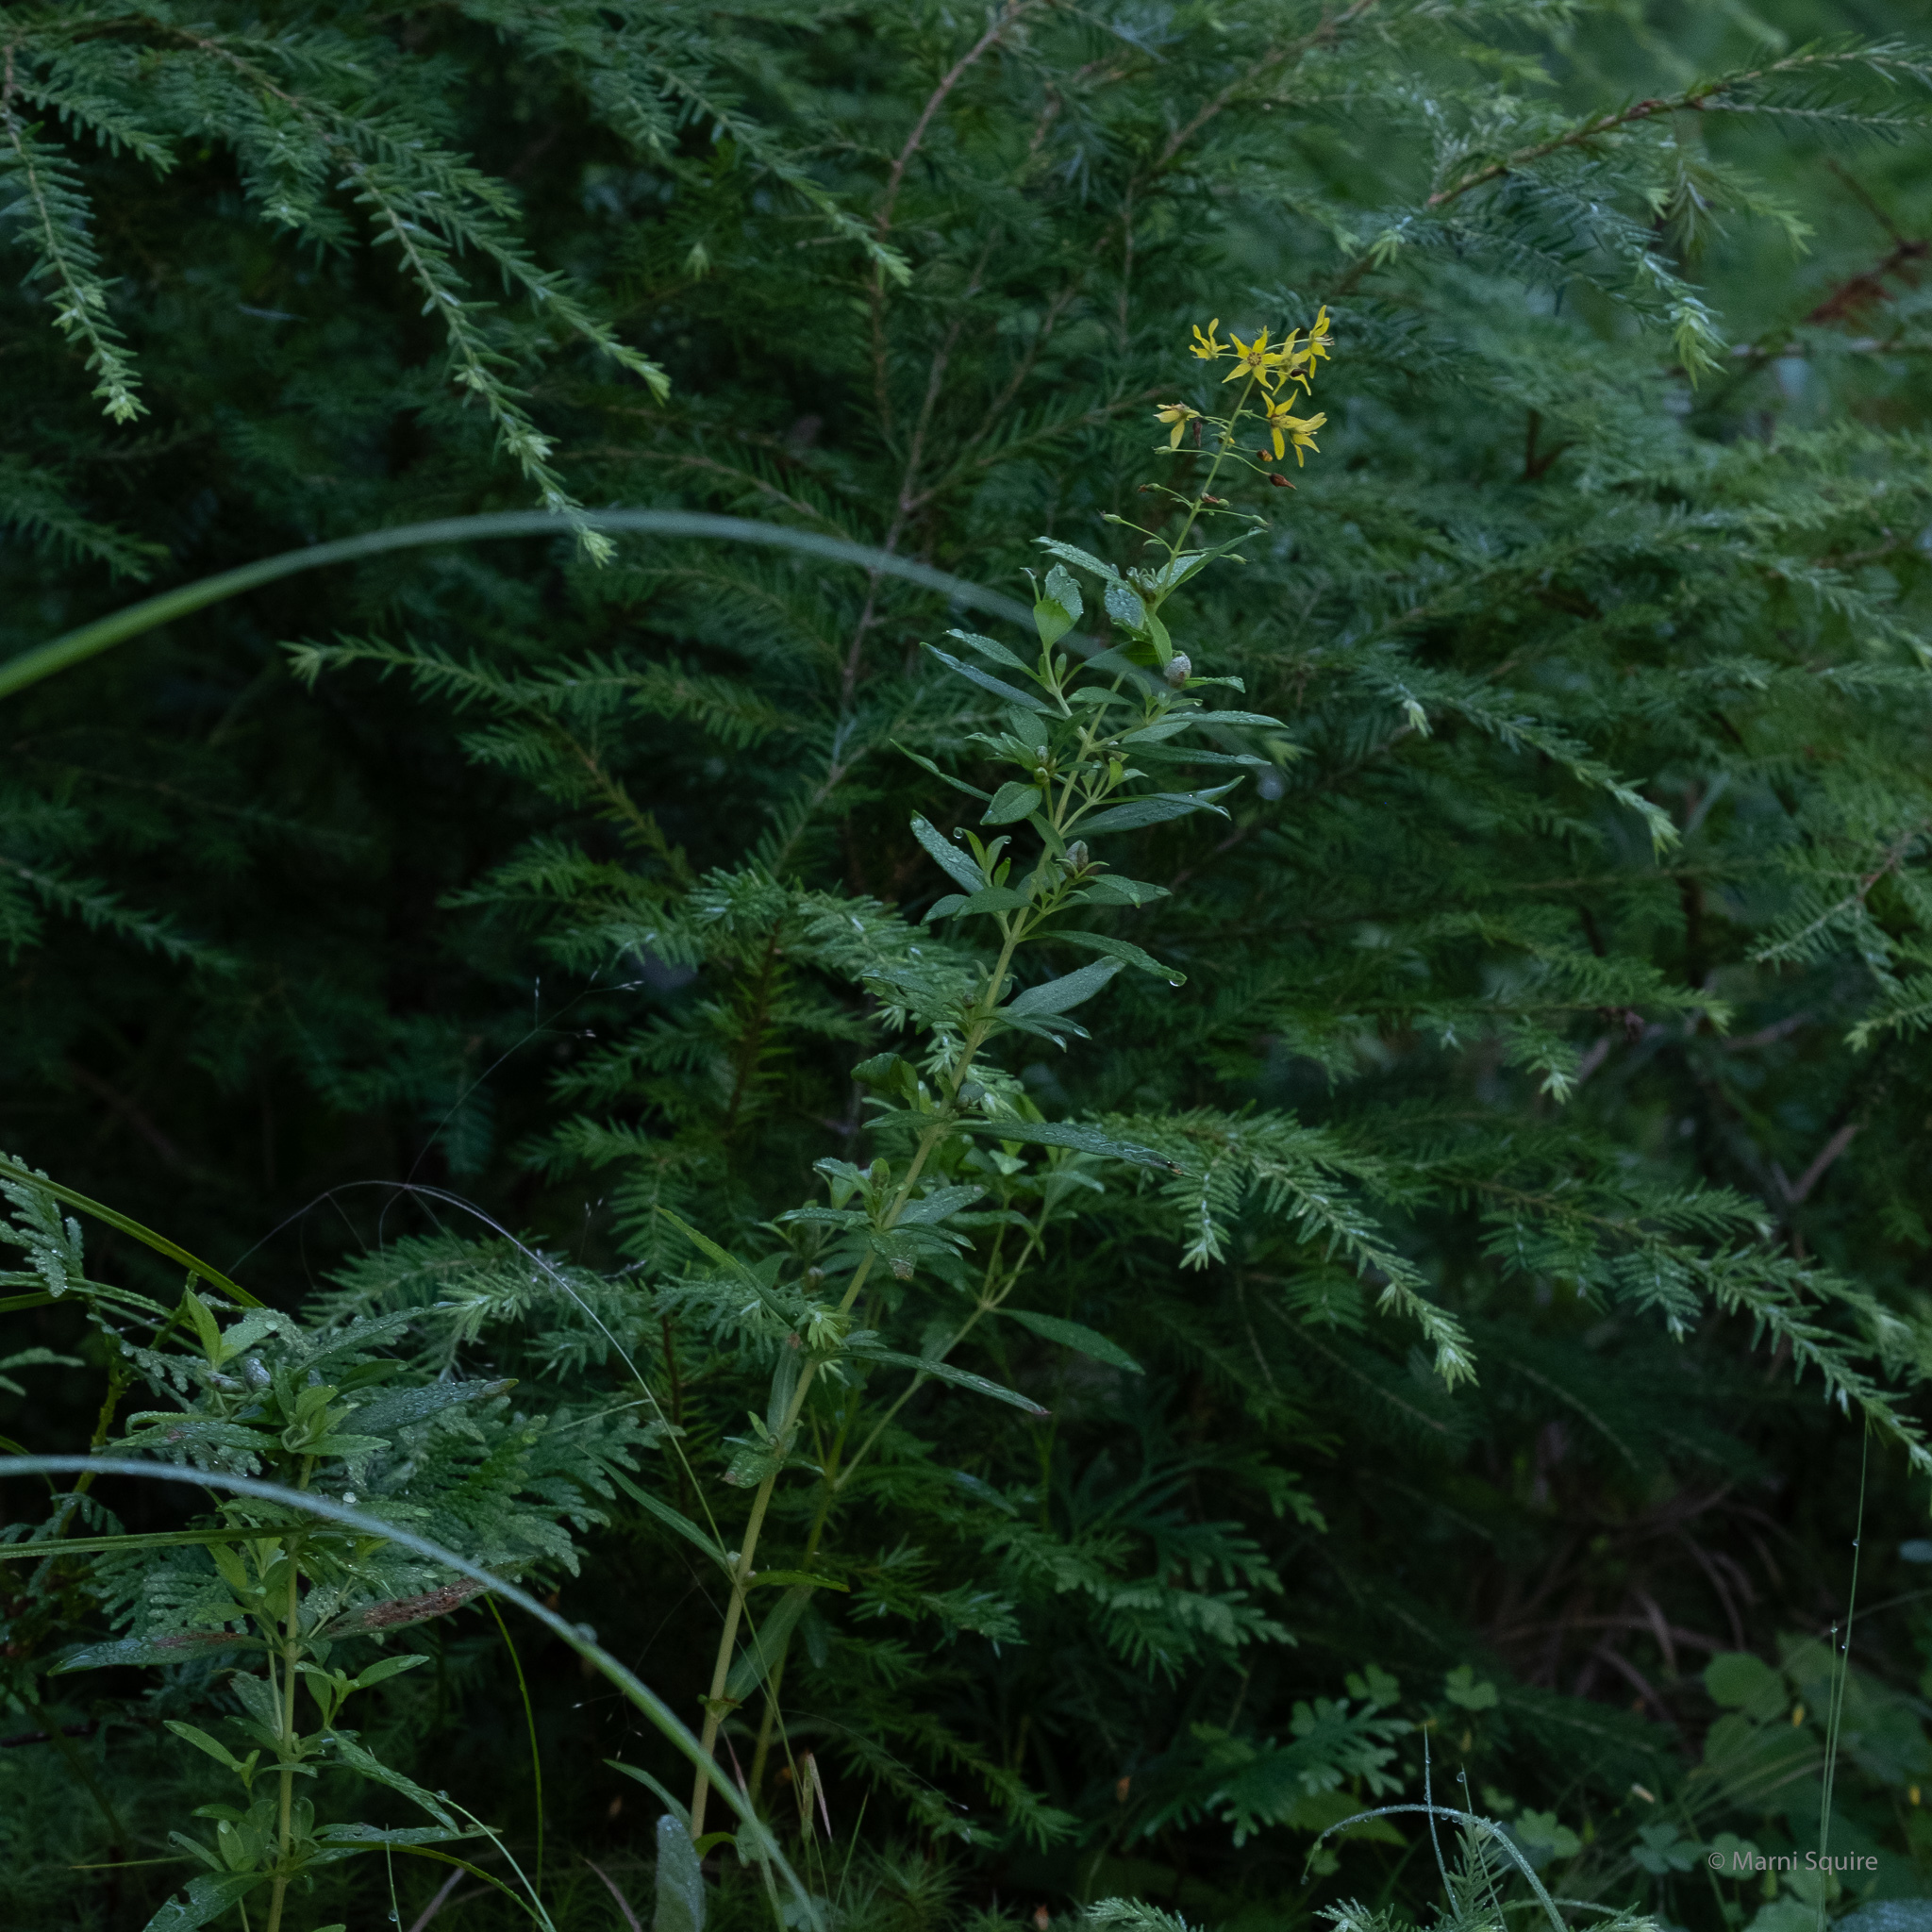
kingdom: Plantae
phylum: Tracheophyta
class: Magnoliopsida
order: Ericales
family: Primulaceae
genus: Lysimachia
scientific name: Lysimachia terrestris
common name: Lake loosestrife
